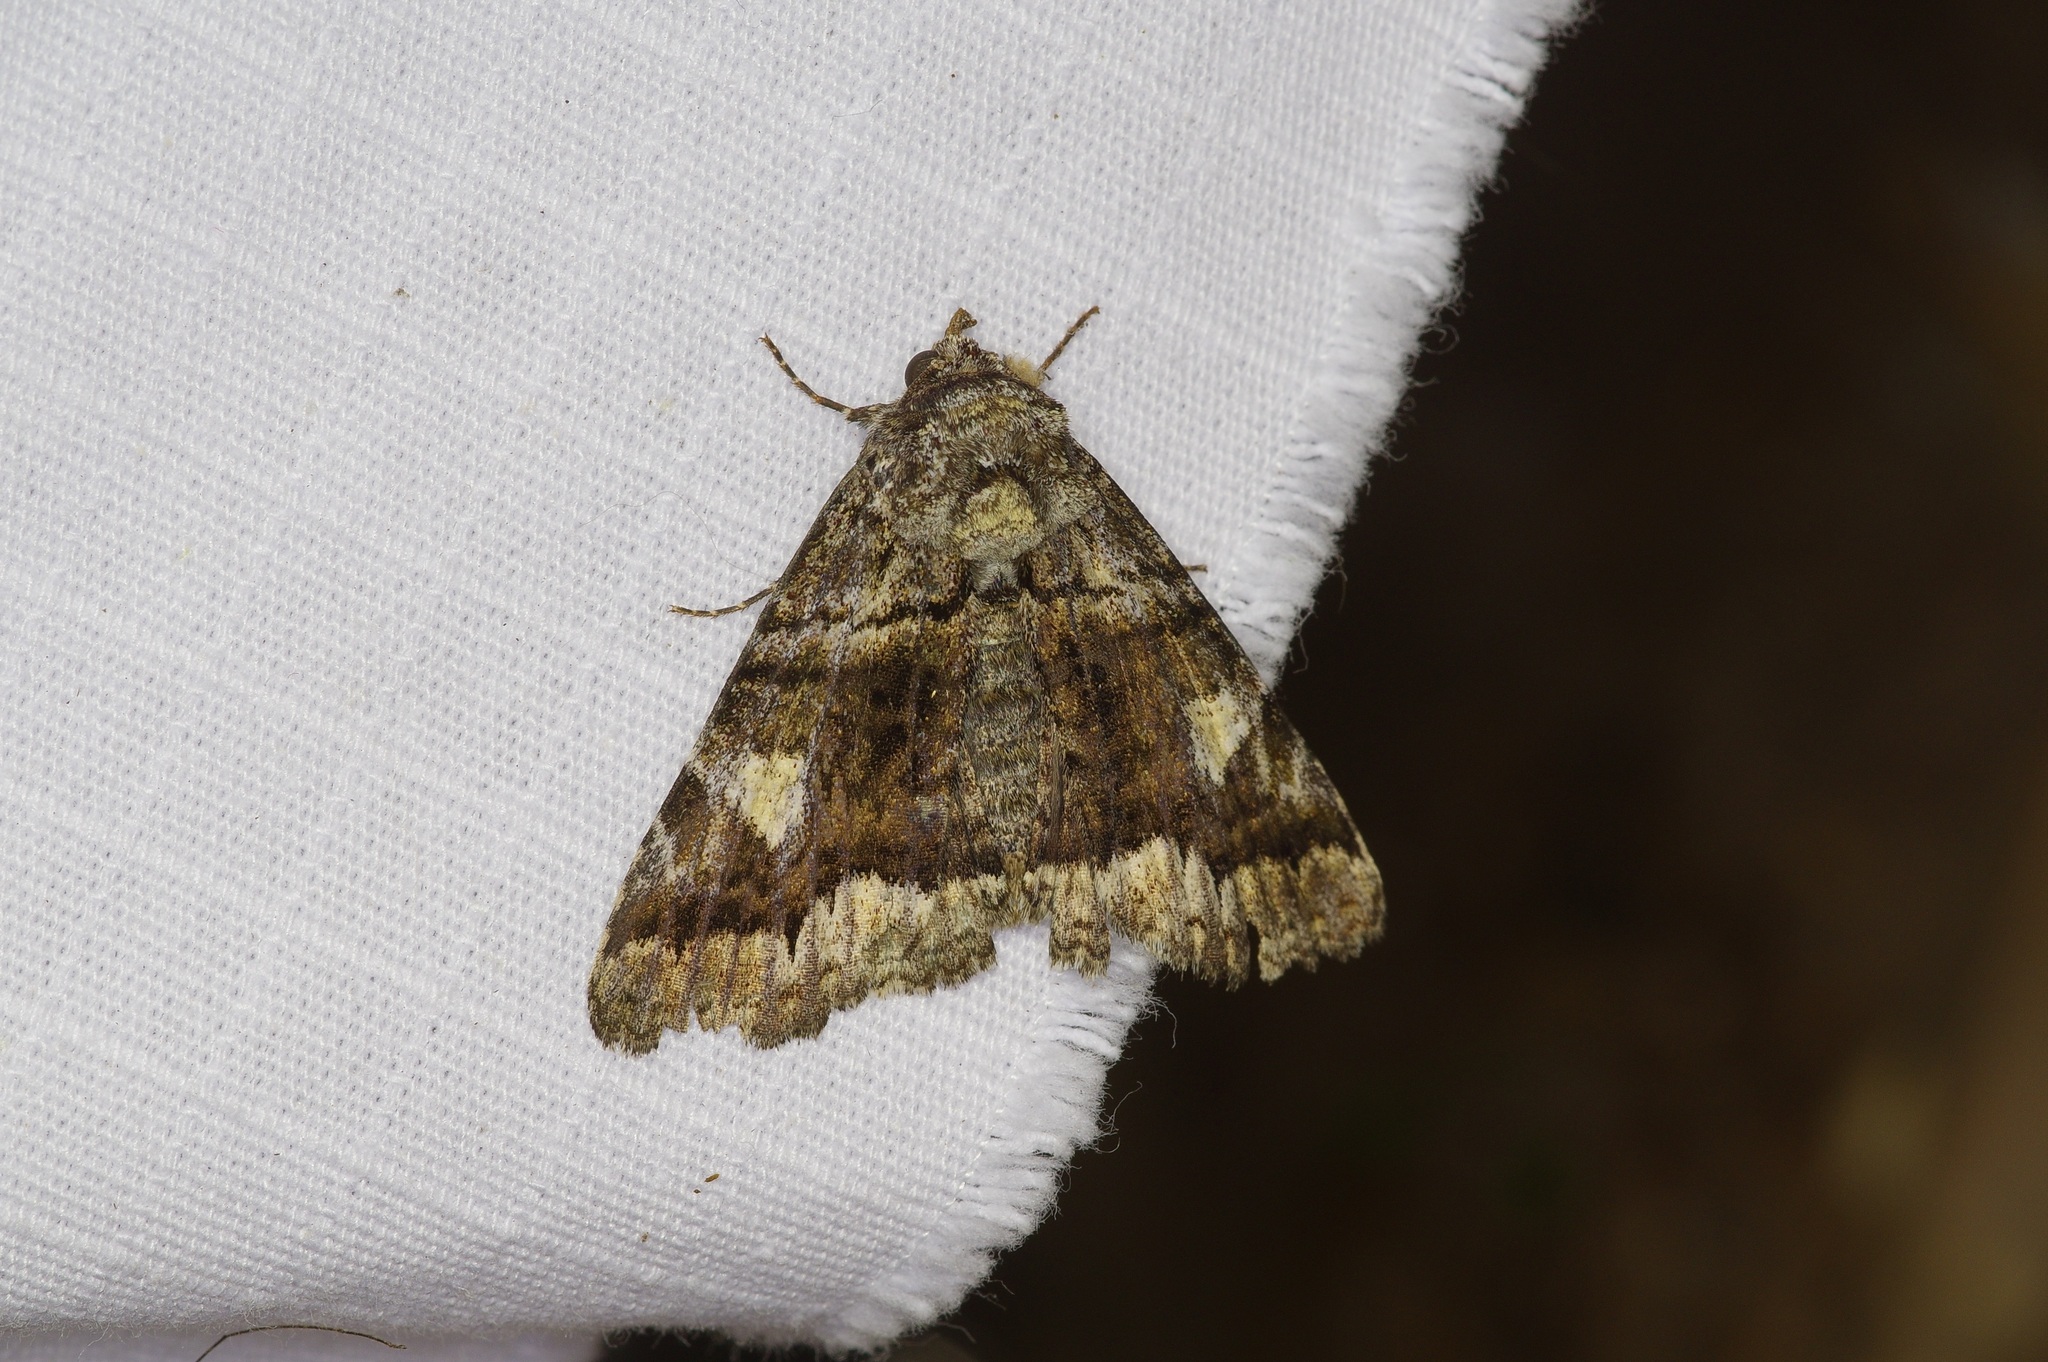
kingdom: Animalia
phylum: Arthropoda
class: Insecta
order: Lepidoptera
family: Erebidae
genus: Metria
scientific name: Metria amella
